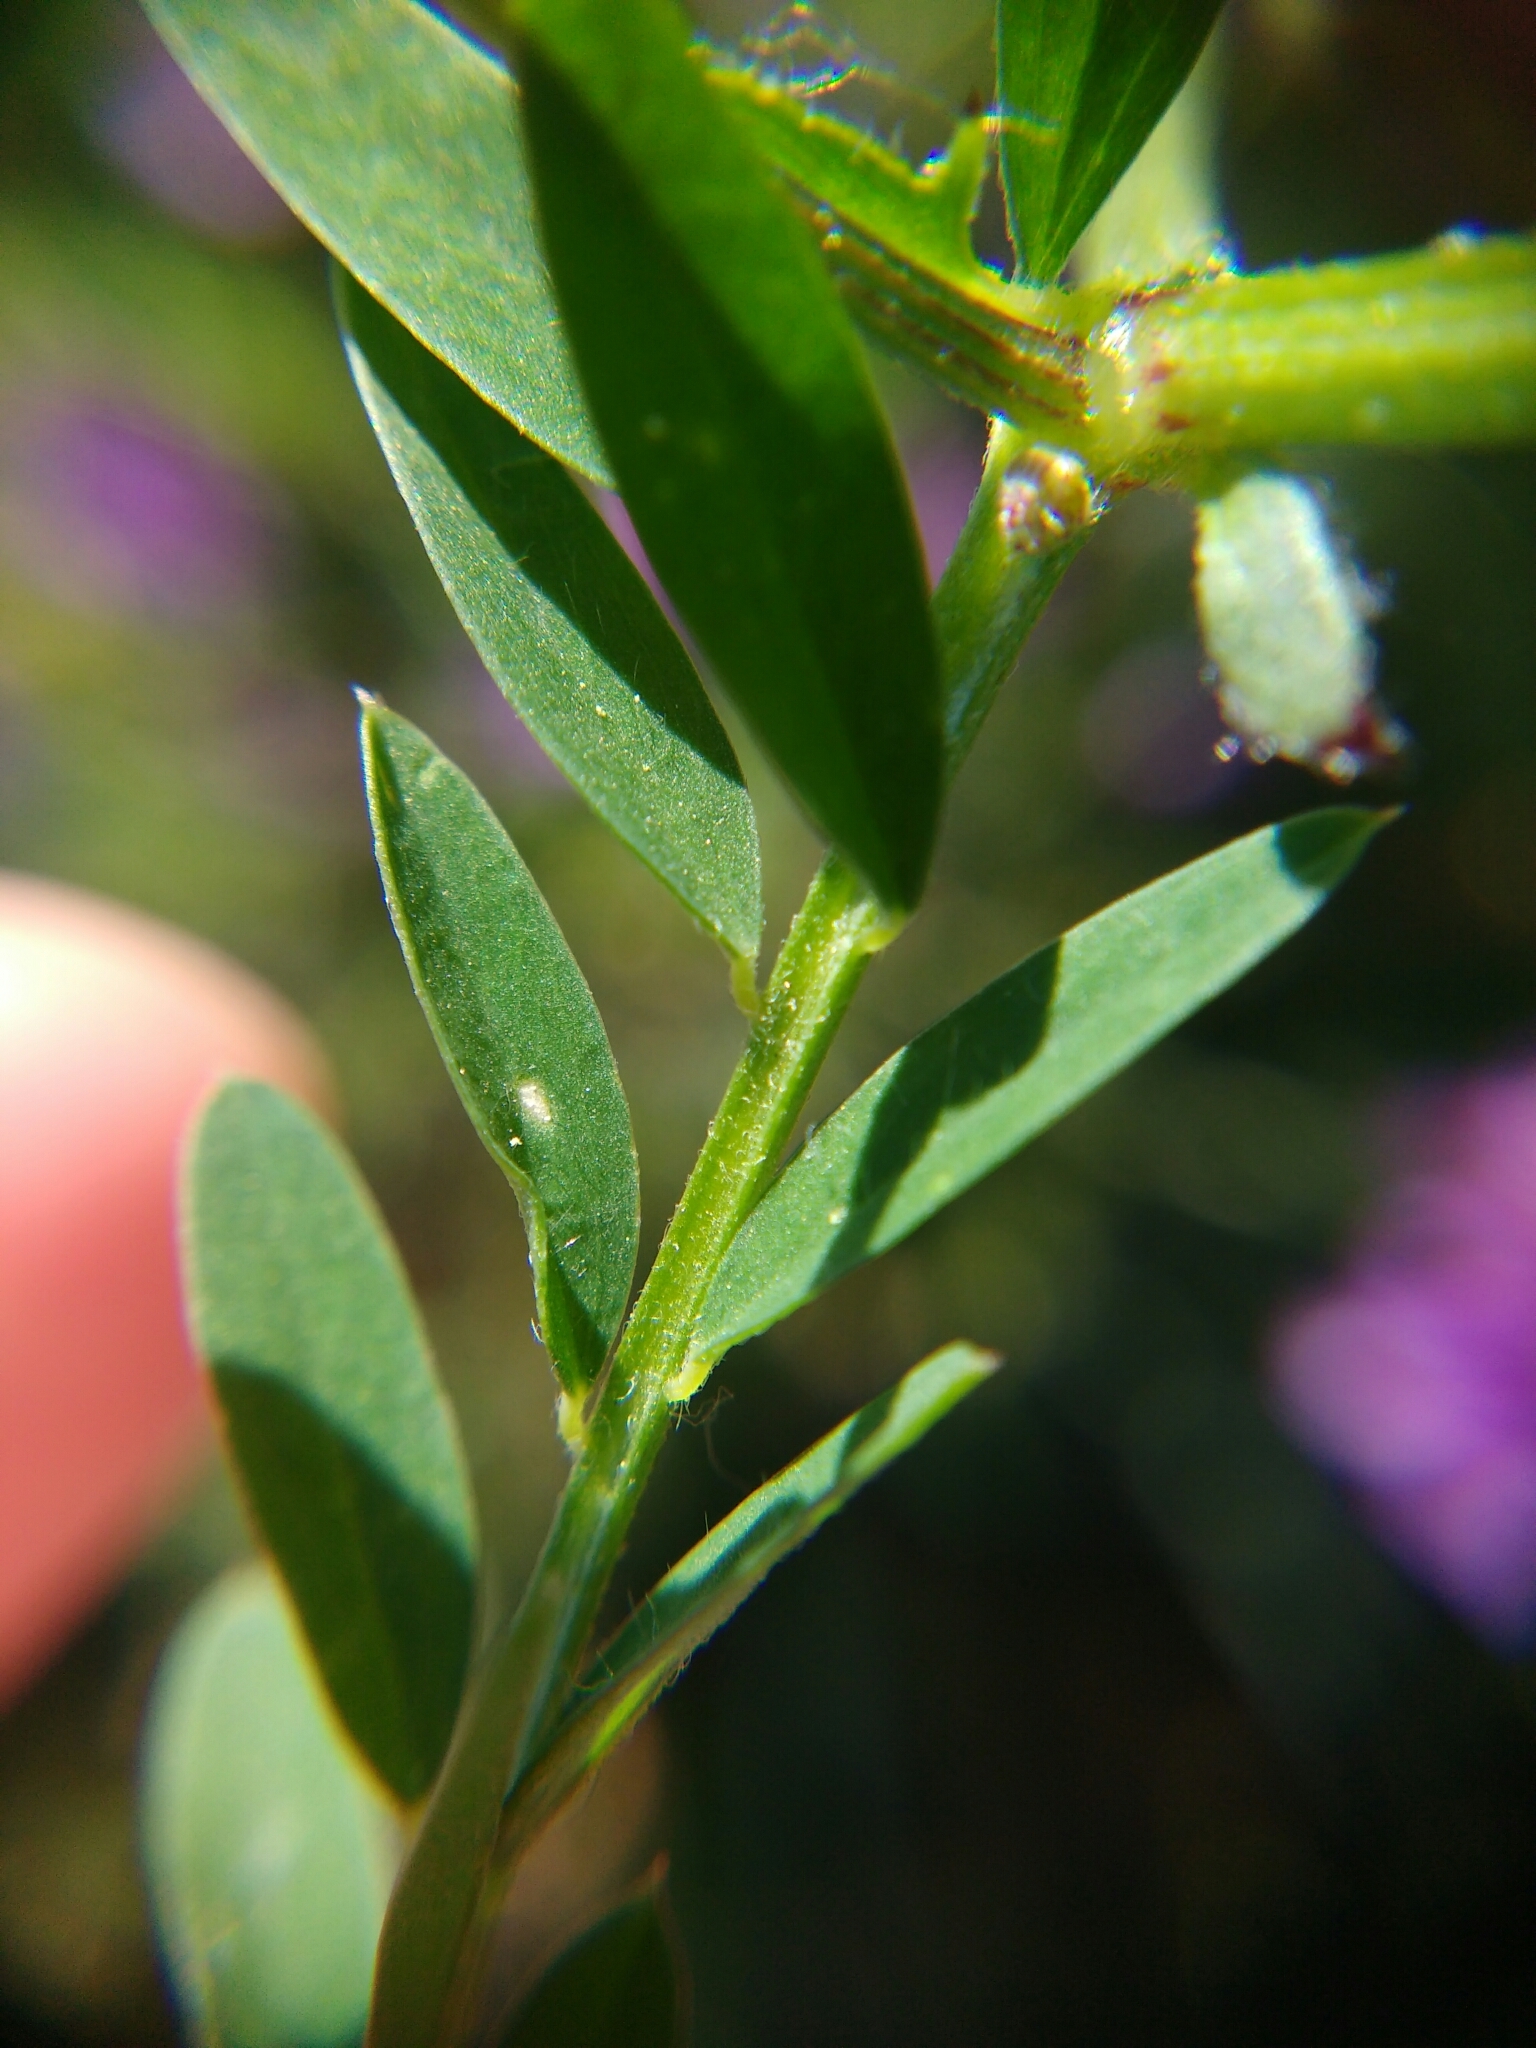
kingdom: Plantae
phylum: Tracheophyta
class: Magnoliopsida
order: Fabales
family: Fabaceae
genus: Vicia
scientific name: Vicia villosa
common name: Fodder vetch
